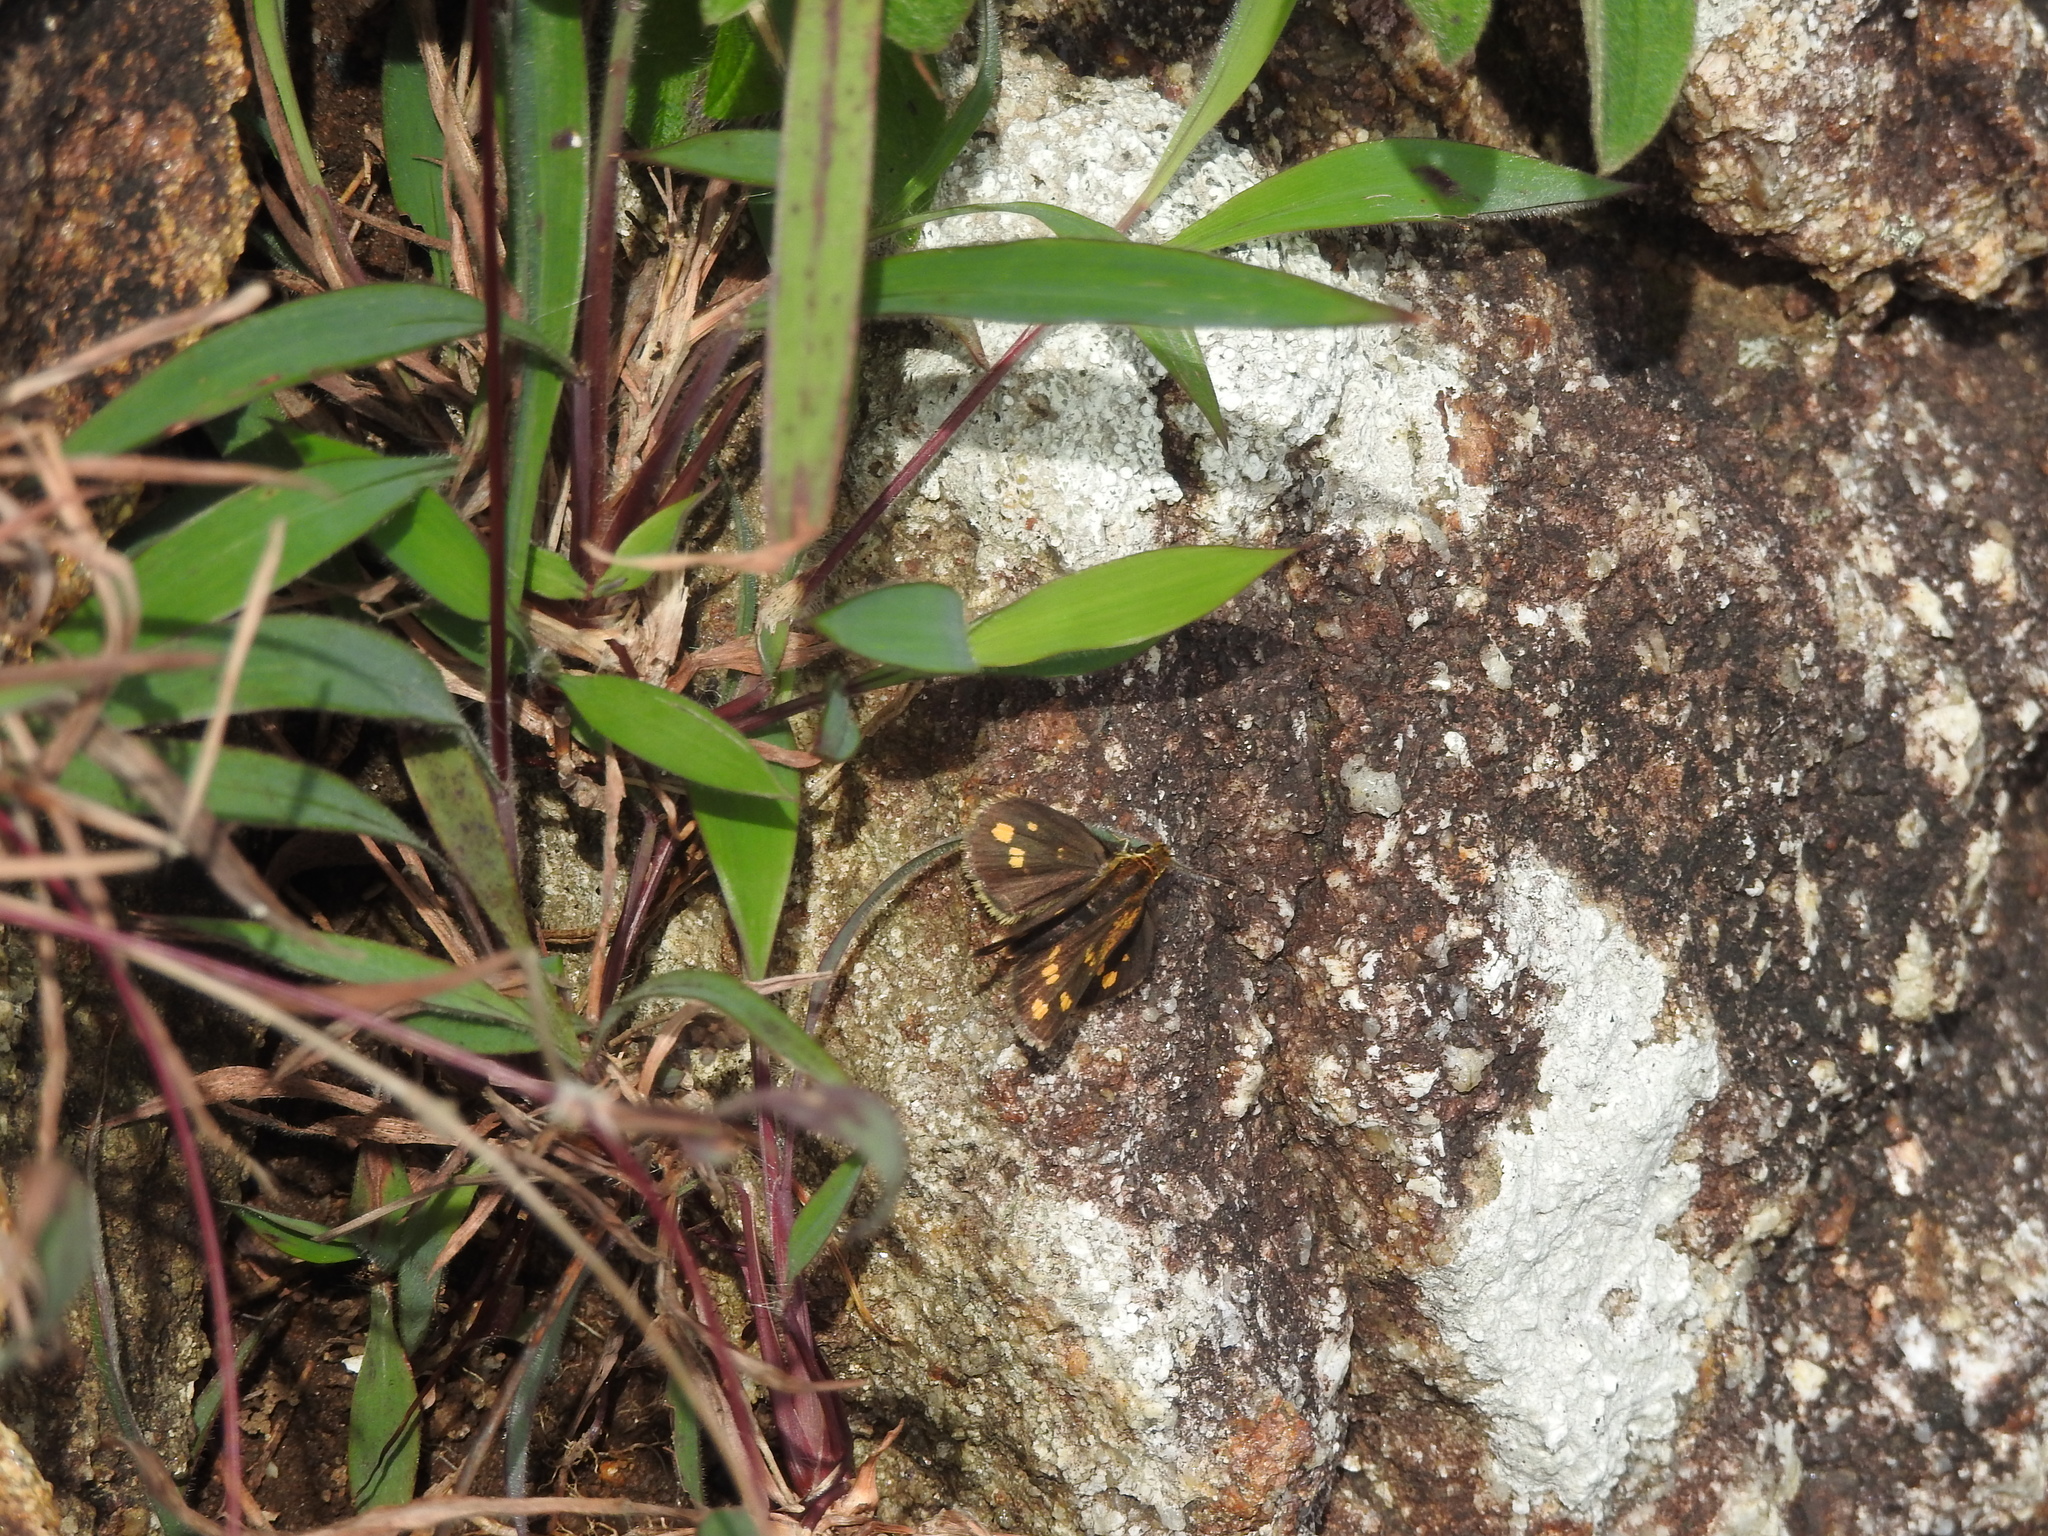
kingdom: Animalia
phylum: Arthropoda
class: Insecta
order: Lepidoptera
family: Hesperiidae
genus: Taractrocera
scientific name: Taractrocera ceramas
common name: Tamil grass dart
